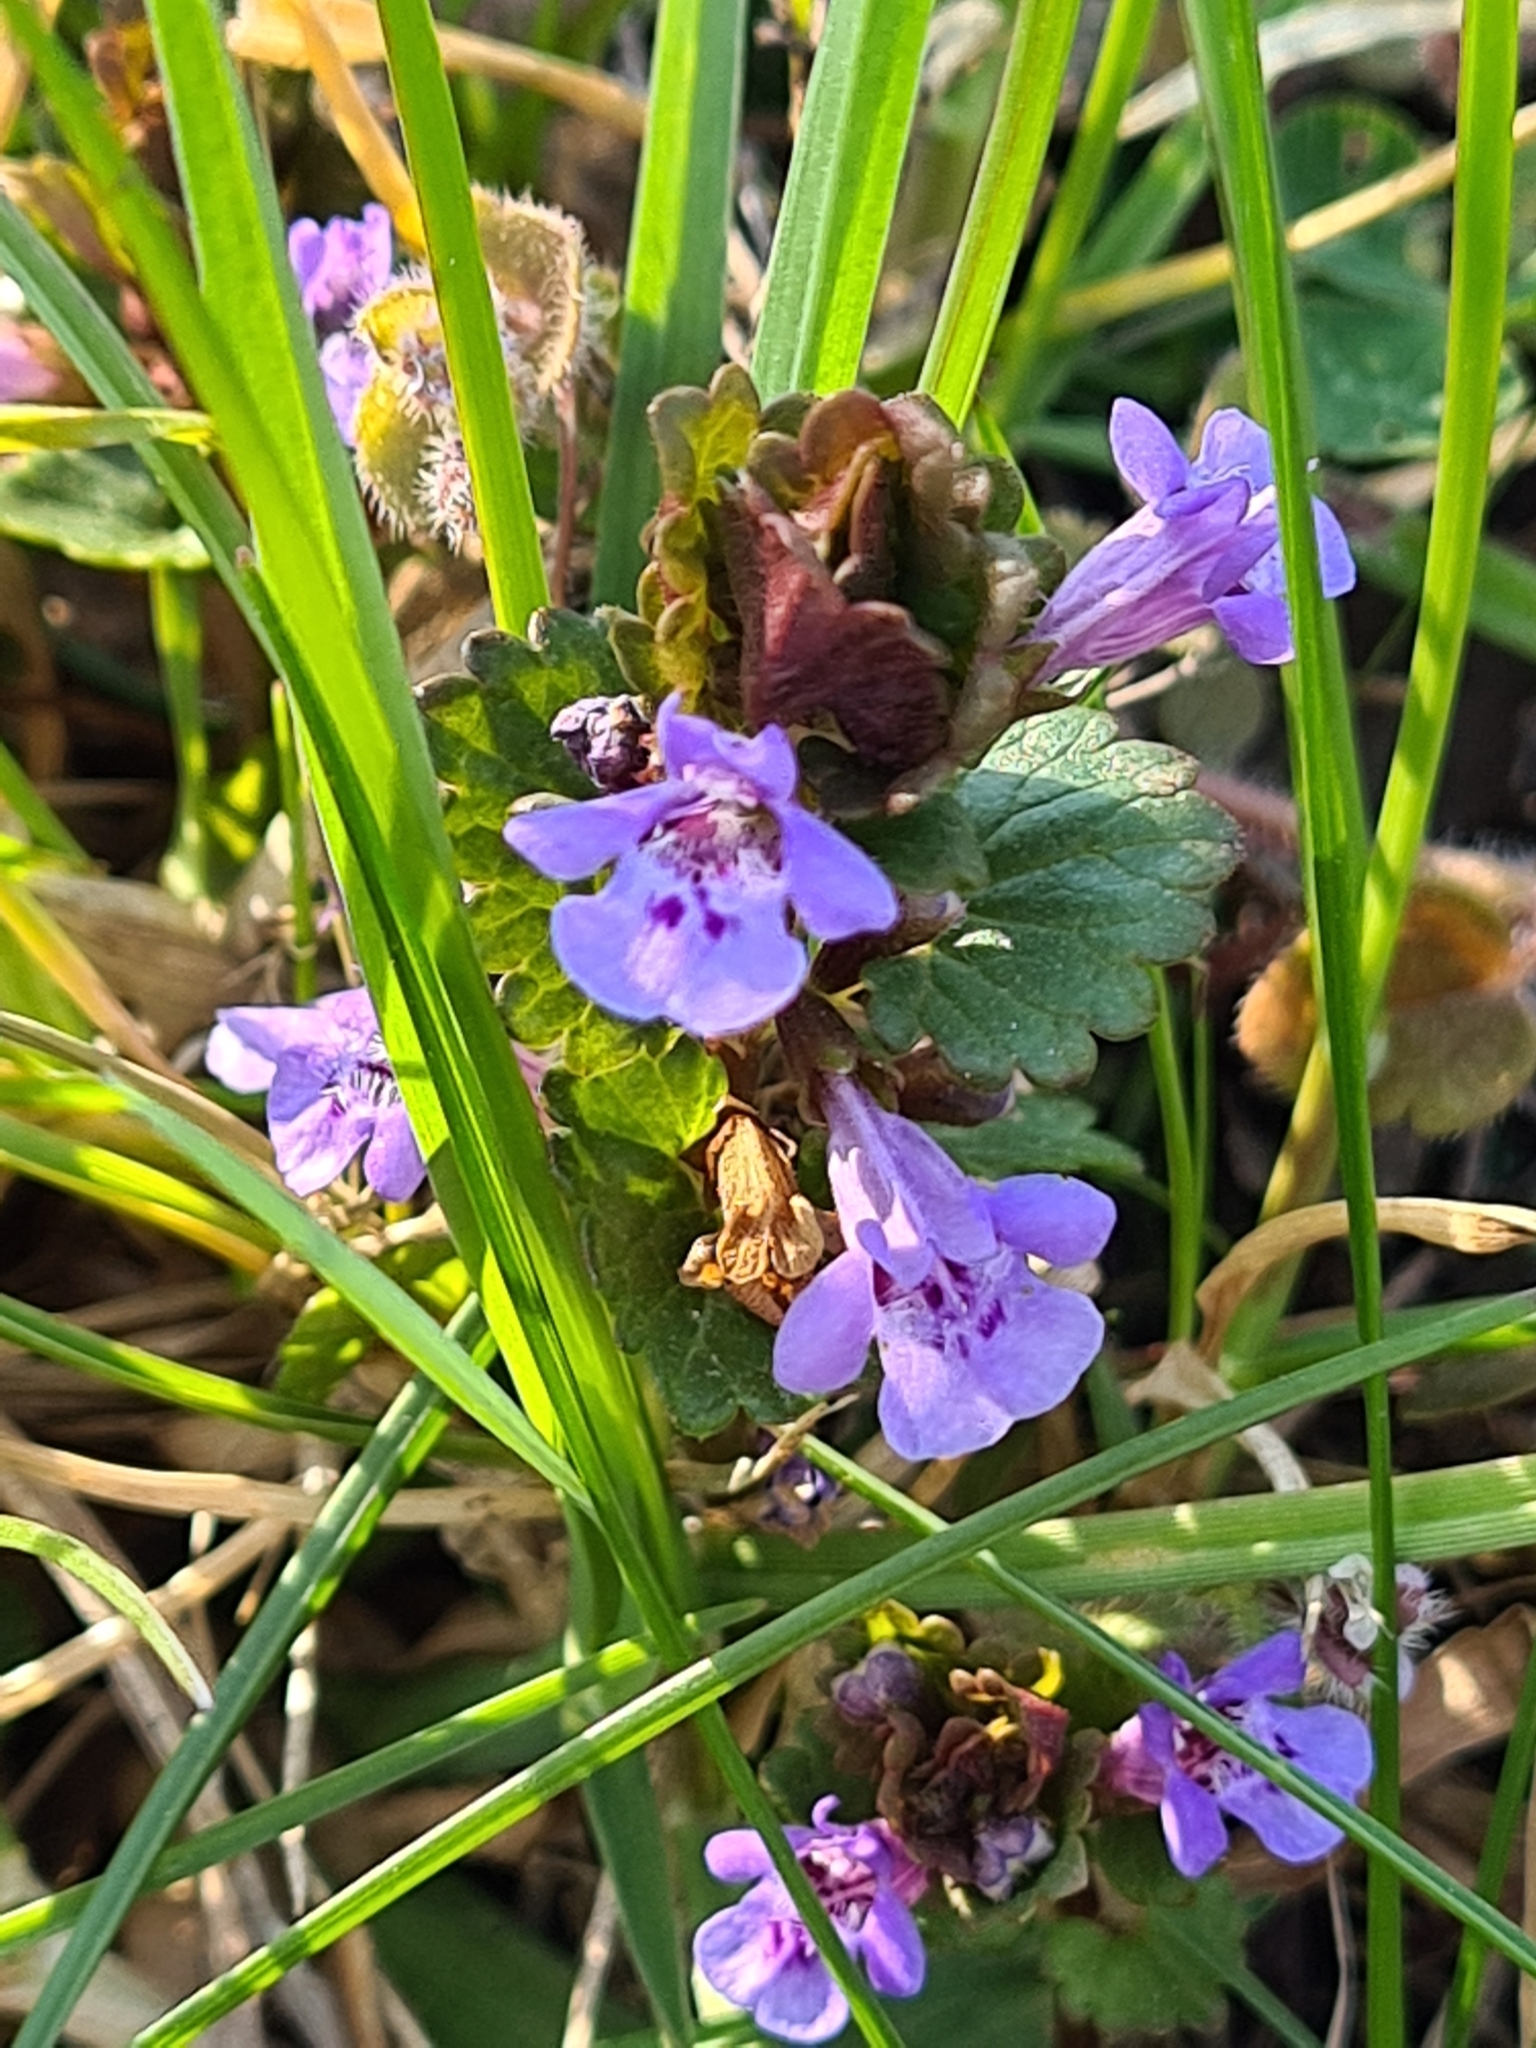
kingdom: Plantae
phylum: Tracheophyta
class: Magnoliopsida
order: Lamiales
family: Lamiaceae
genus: Glechoma
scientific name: Glechoma hederacea
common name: Ground ivy
